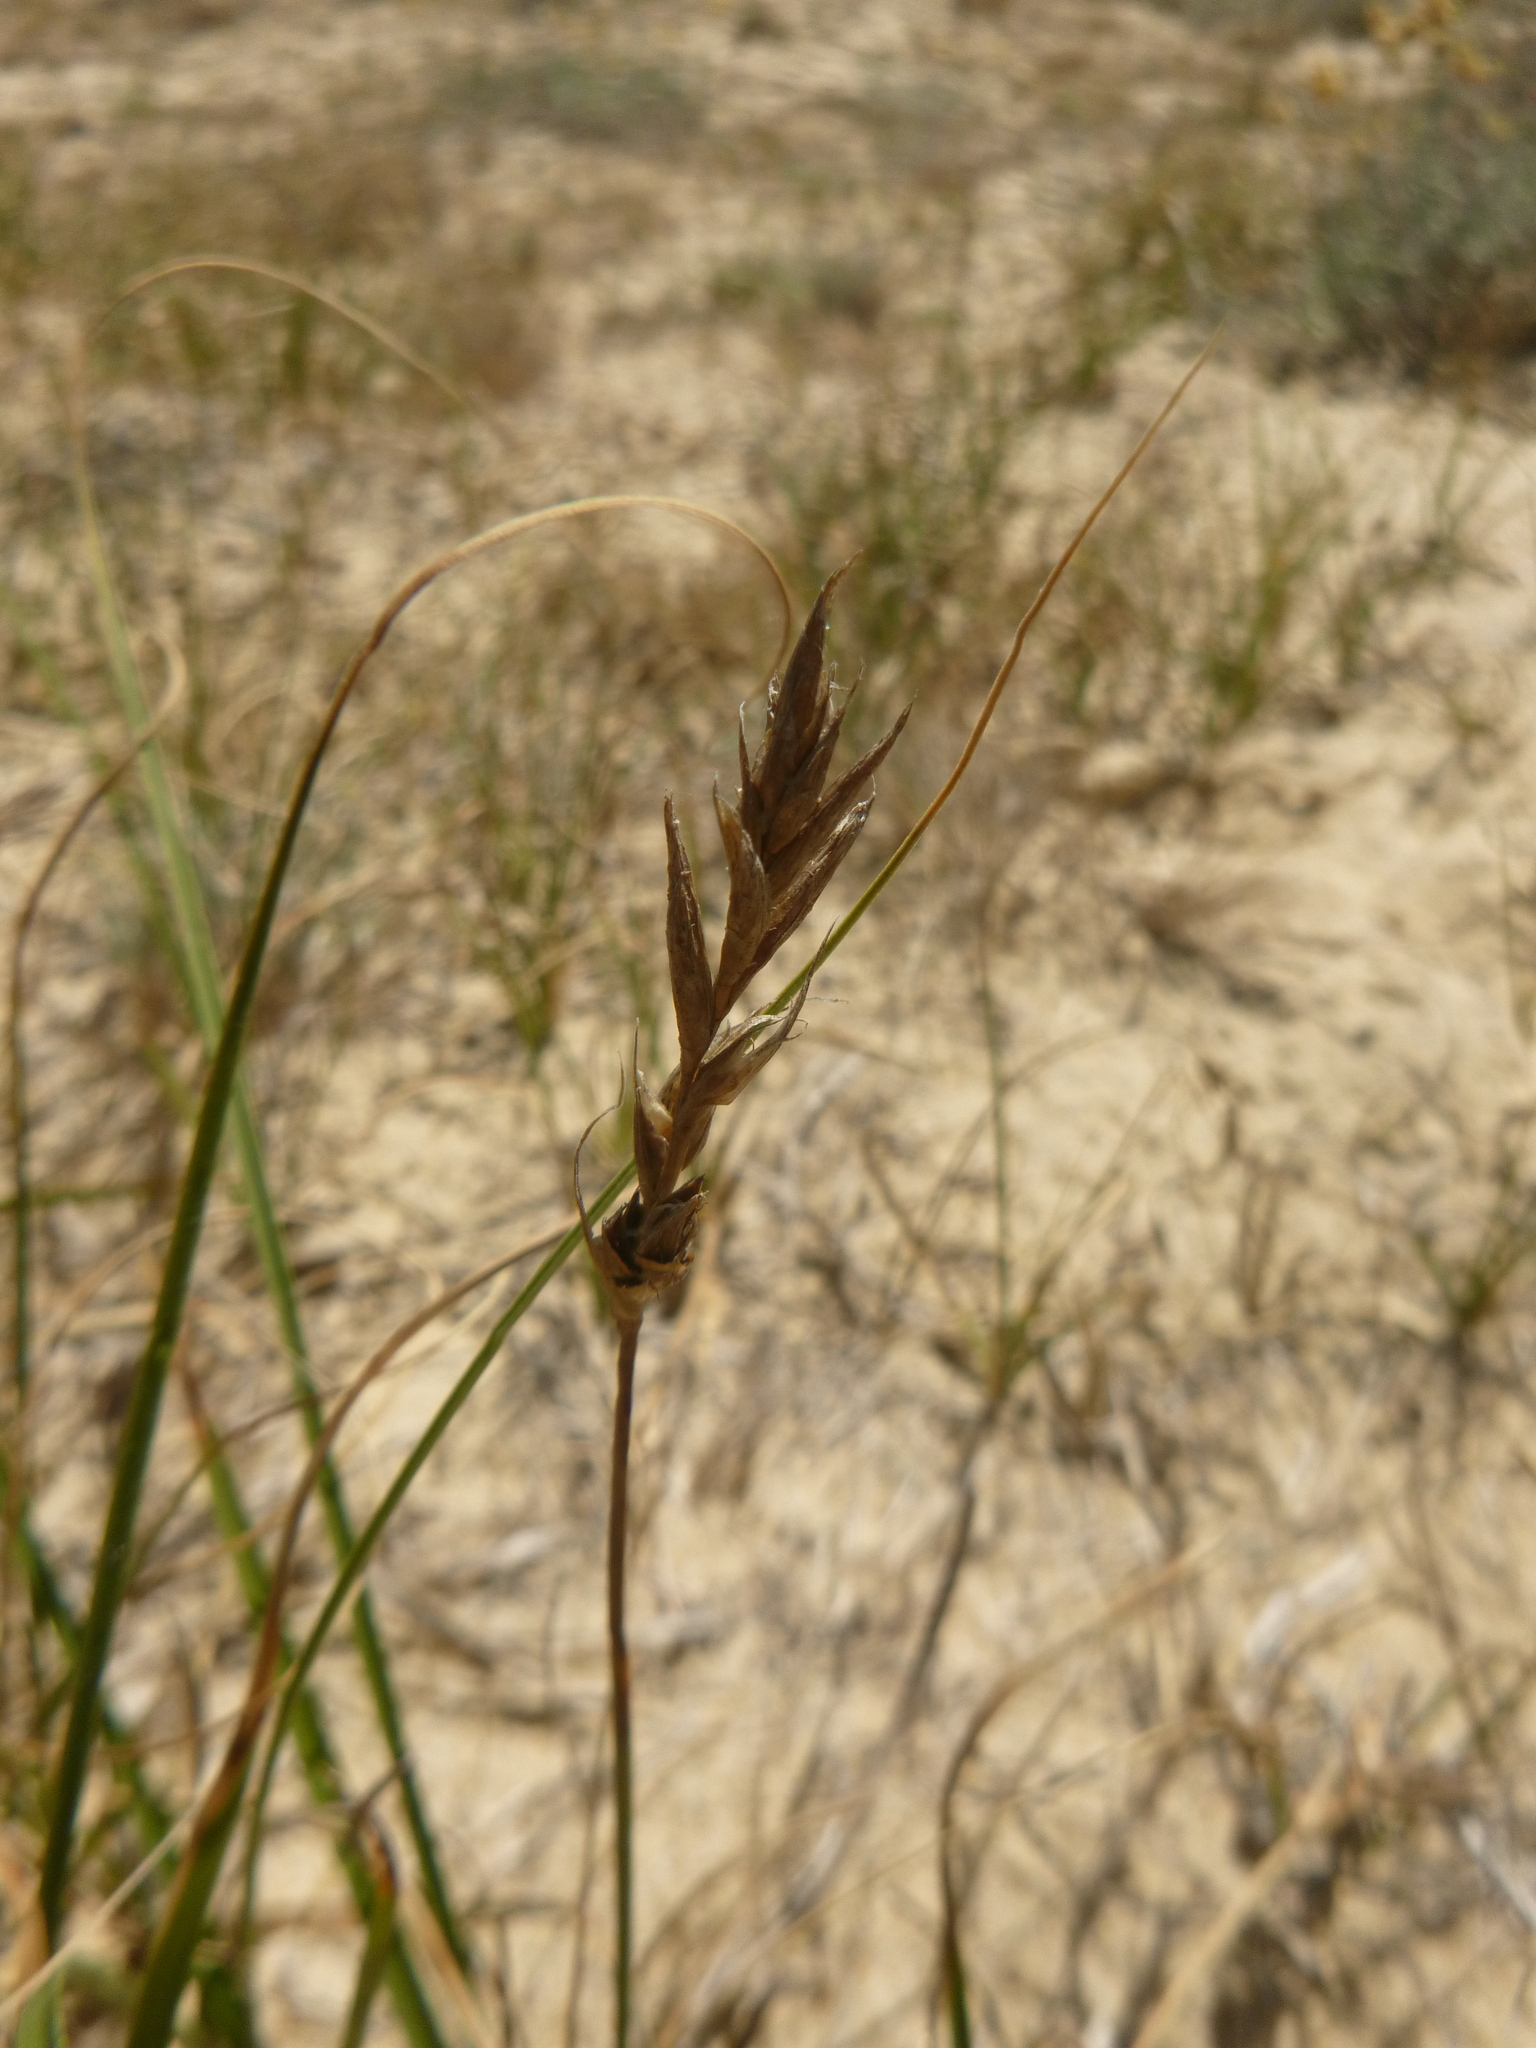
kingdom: Plantae
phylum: Tracheophyta
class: Liliopsida
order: Poales
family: Cyperaceae
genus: Carex
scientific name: Carex arenaria
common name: Sand sedge
